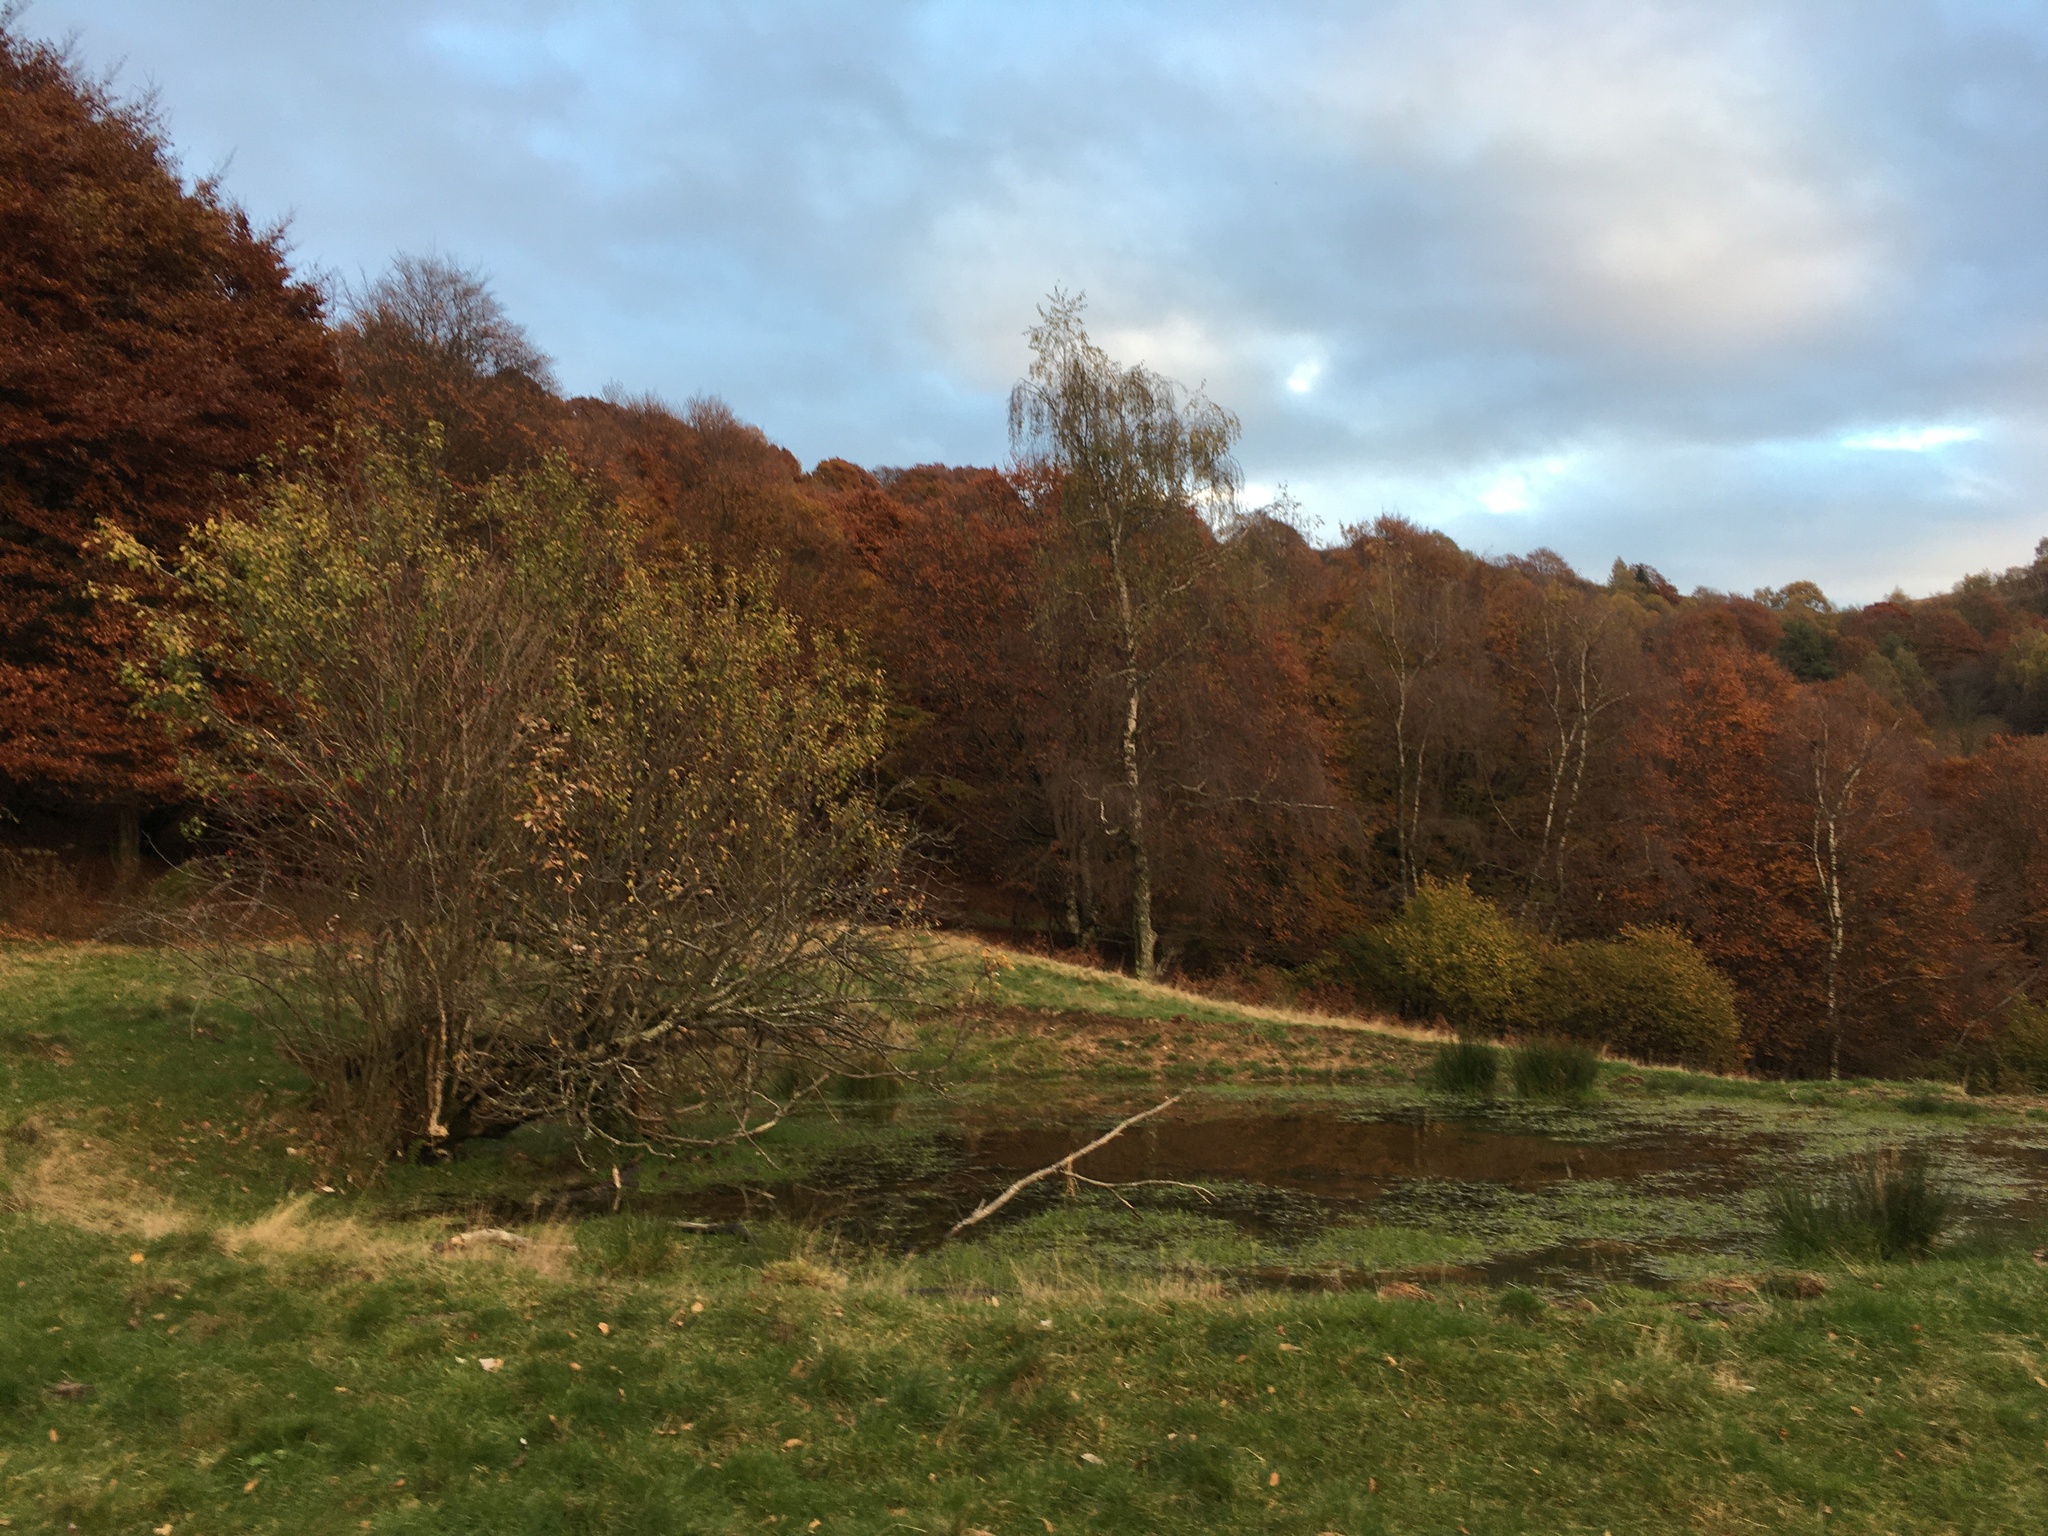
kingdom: Fungi
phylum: Basidiomycota
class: Agaricomycetes
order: Agaricales
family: Hymenogastraceae
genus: Psilocybe
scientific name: Psilocybe semilanceata
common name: Liberty cap
